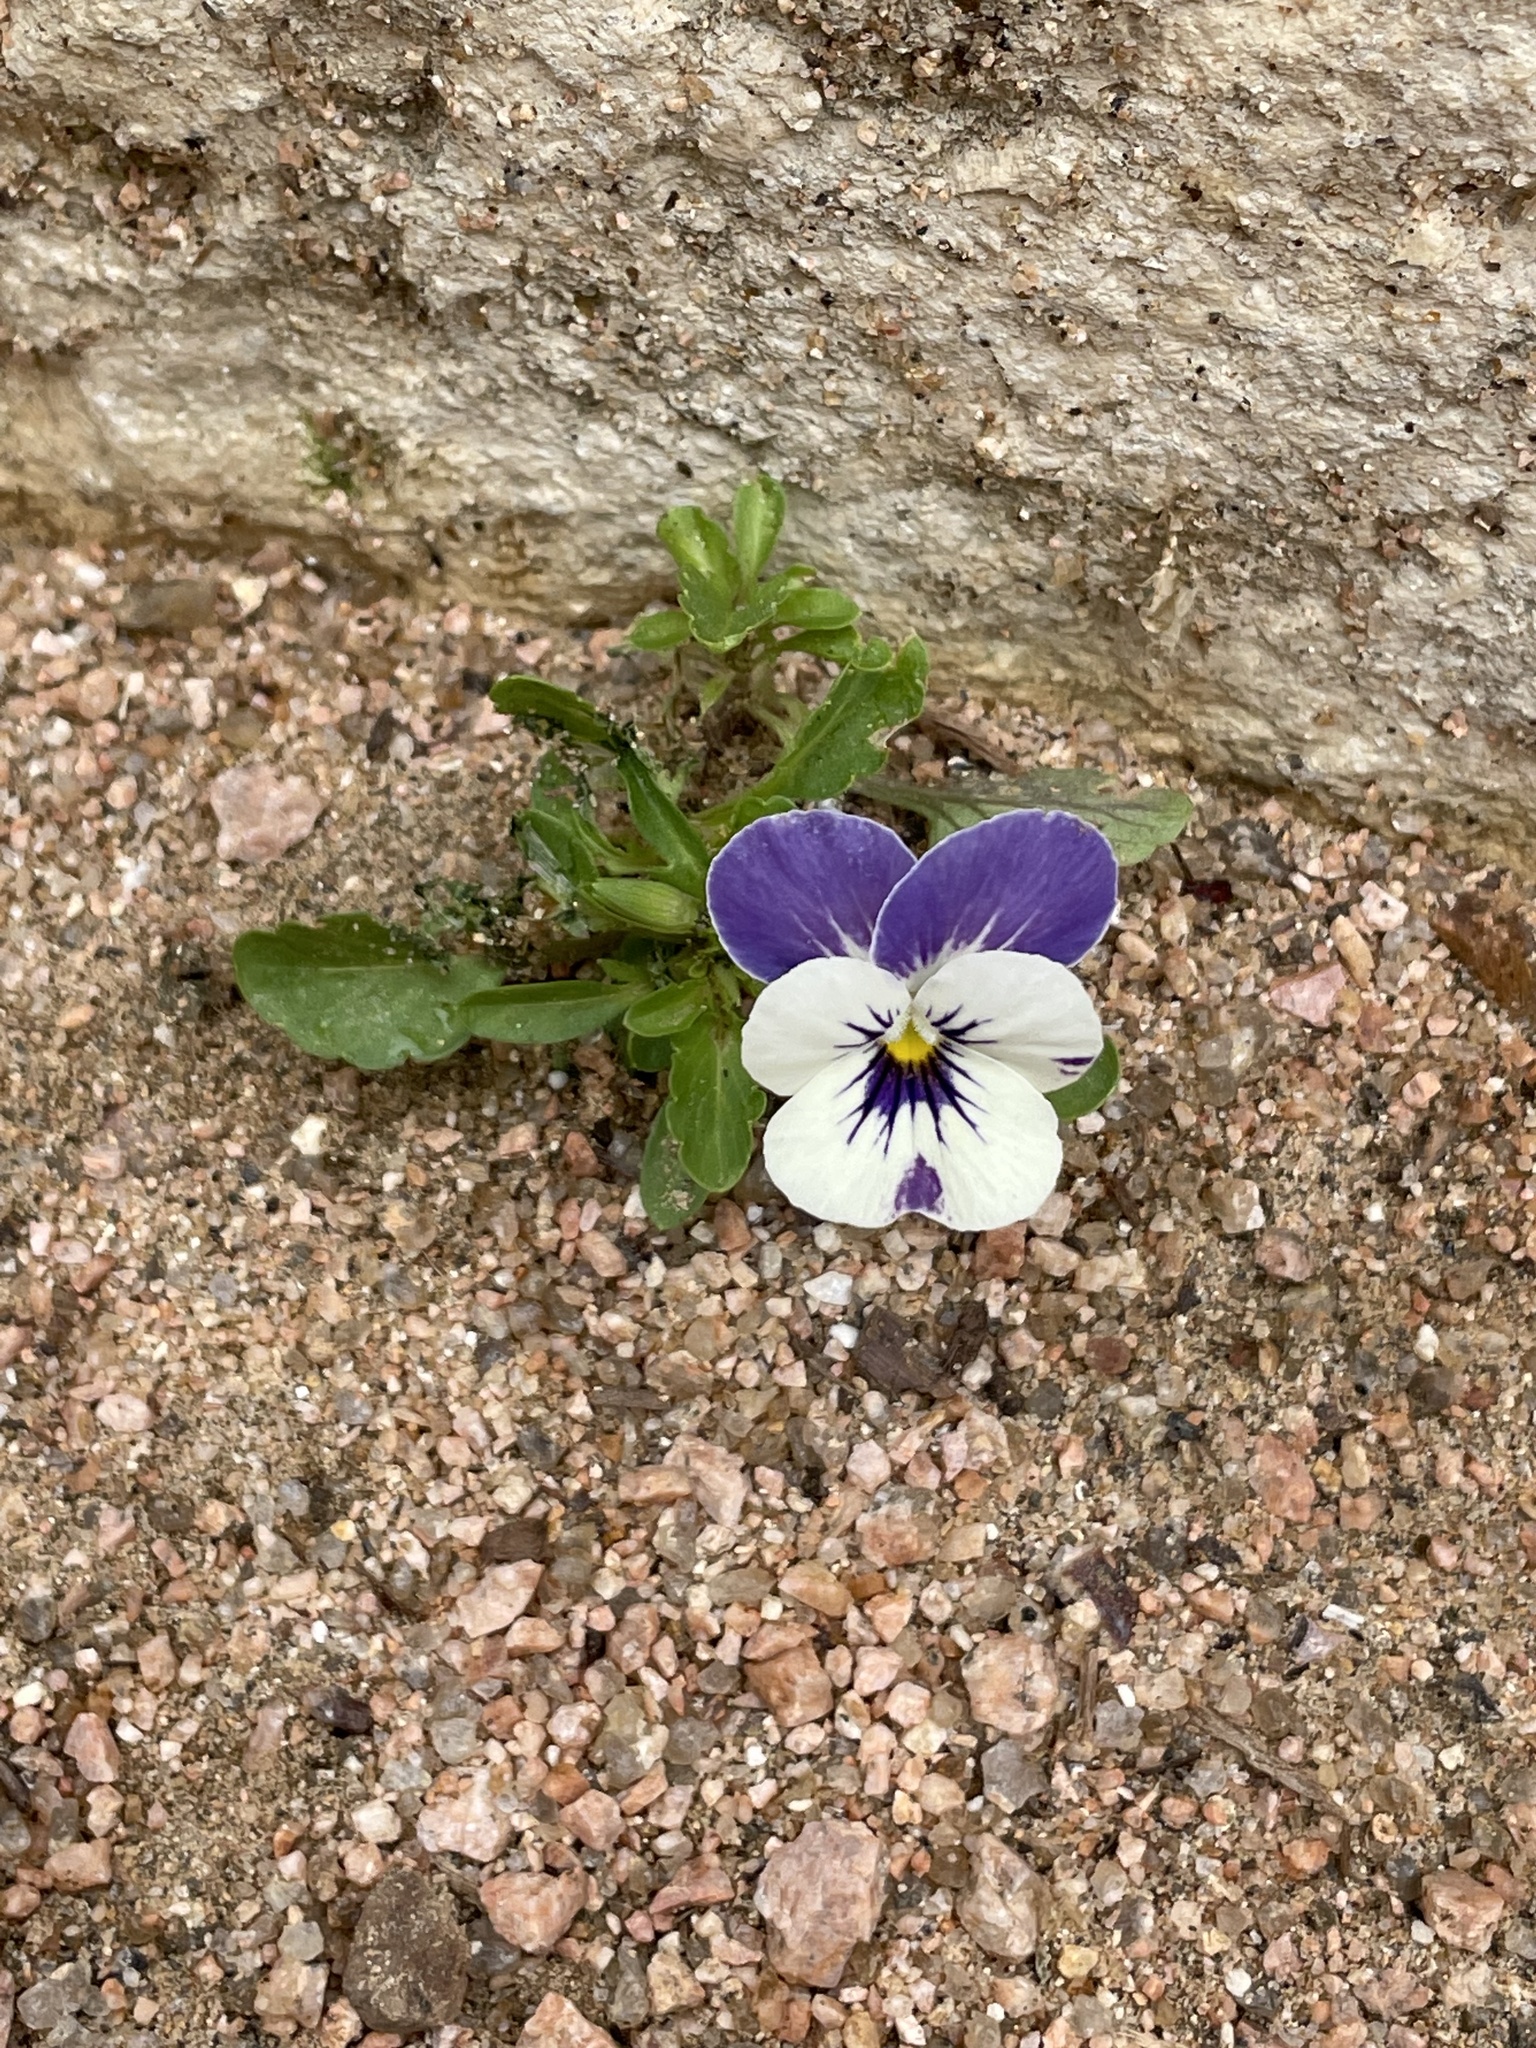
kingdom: Plantae
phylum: Tracheophyta
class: Magnoliopsida
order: Malpighiales
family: Violaceae
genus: Viola
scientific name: Viola williamsii
